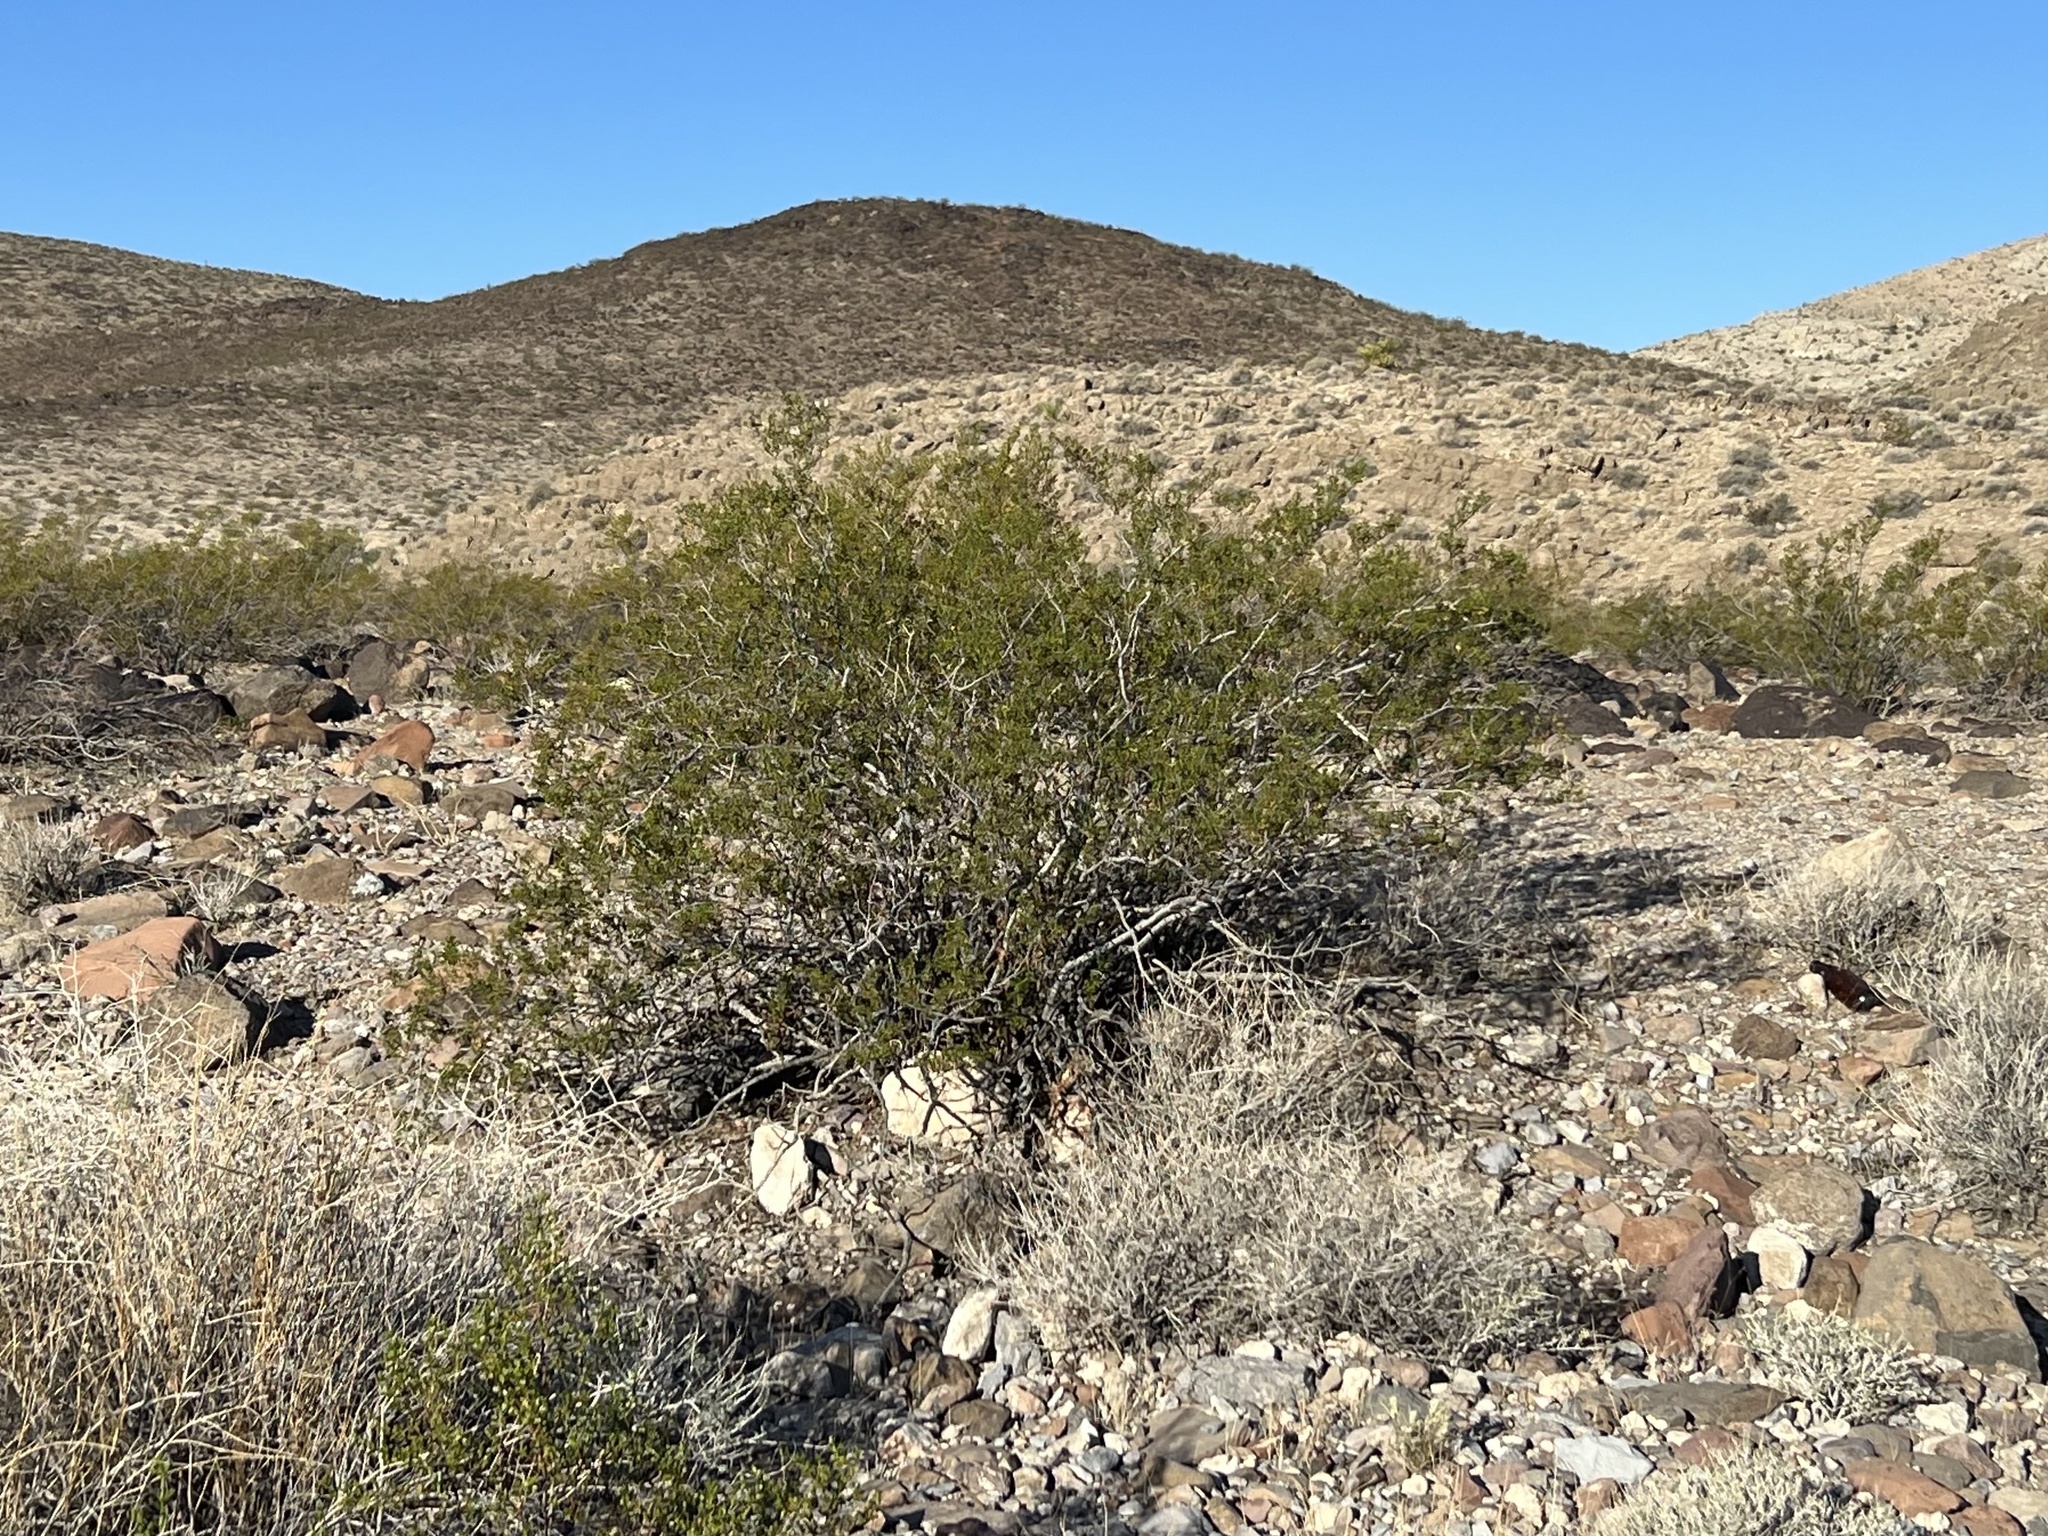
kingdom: Plantae
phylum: Tracheophyta
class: Magnoliopsida
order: Zygophyllales
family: Zygophyllaceae
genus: Larrea
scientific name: Larrea tridentata
